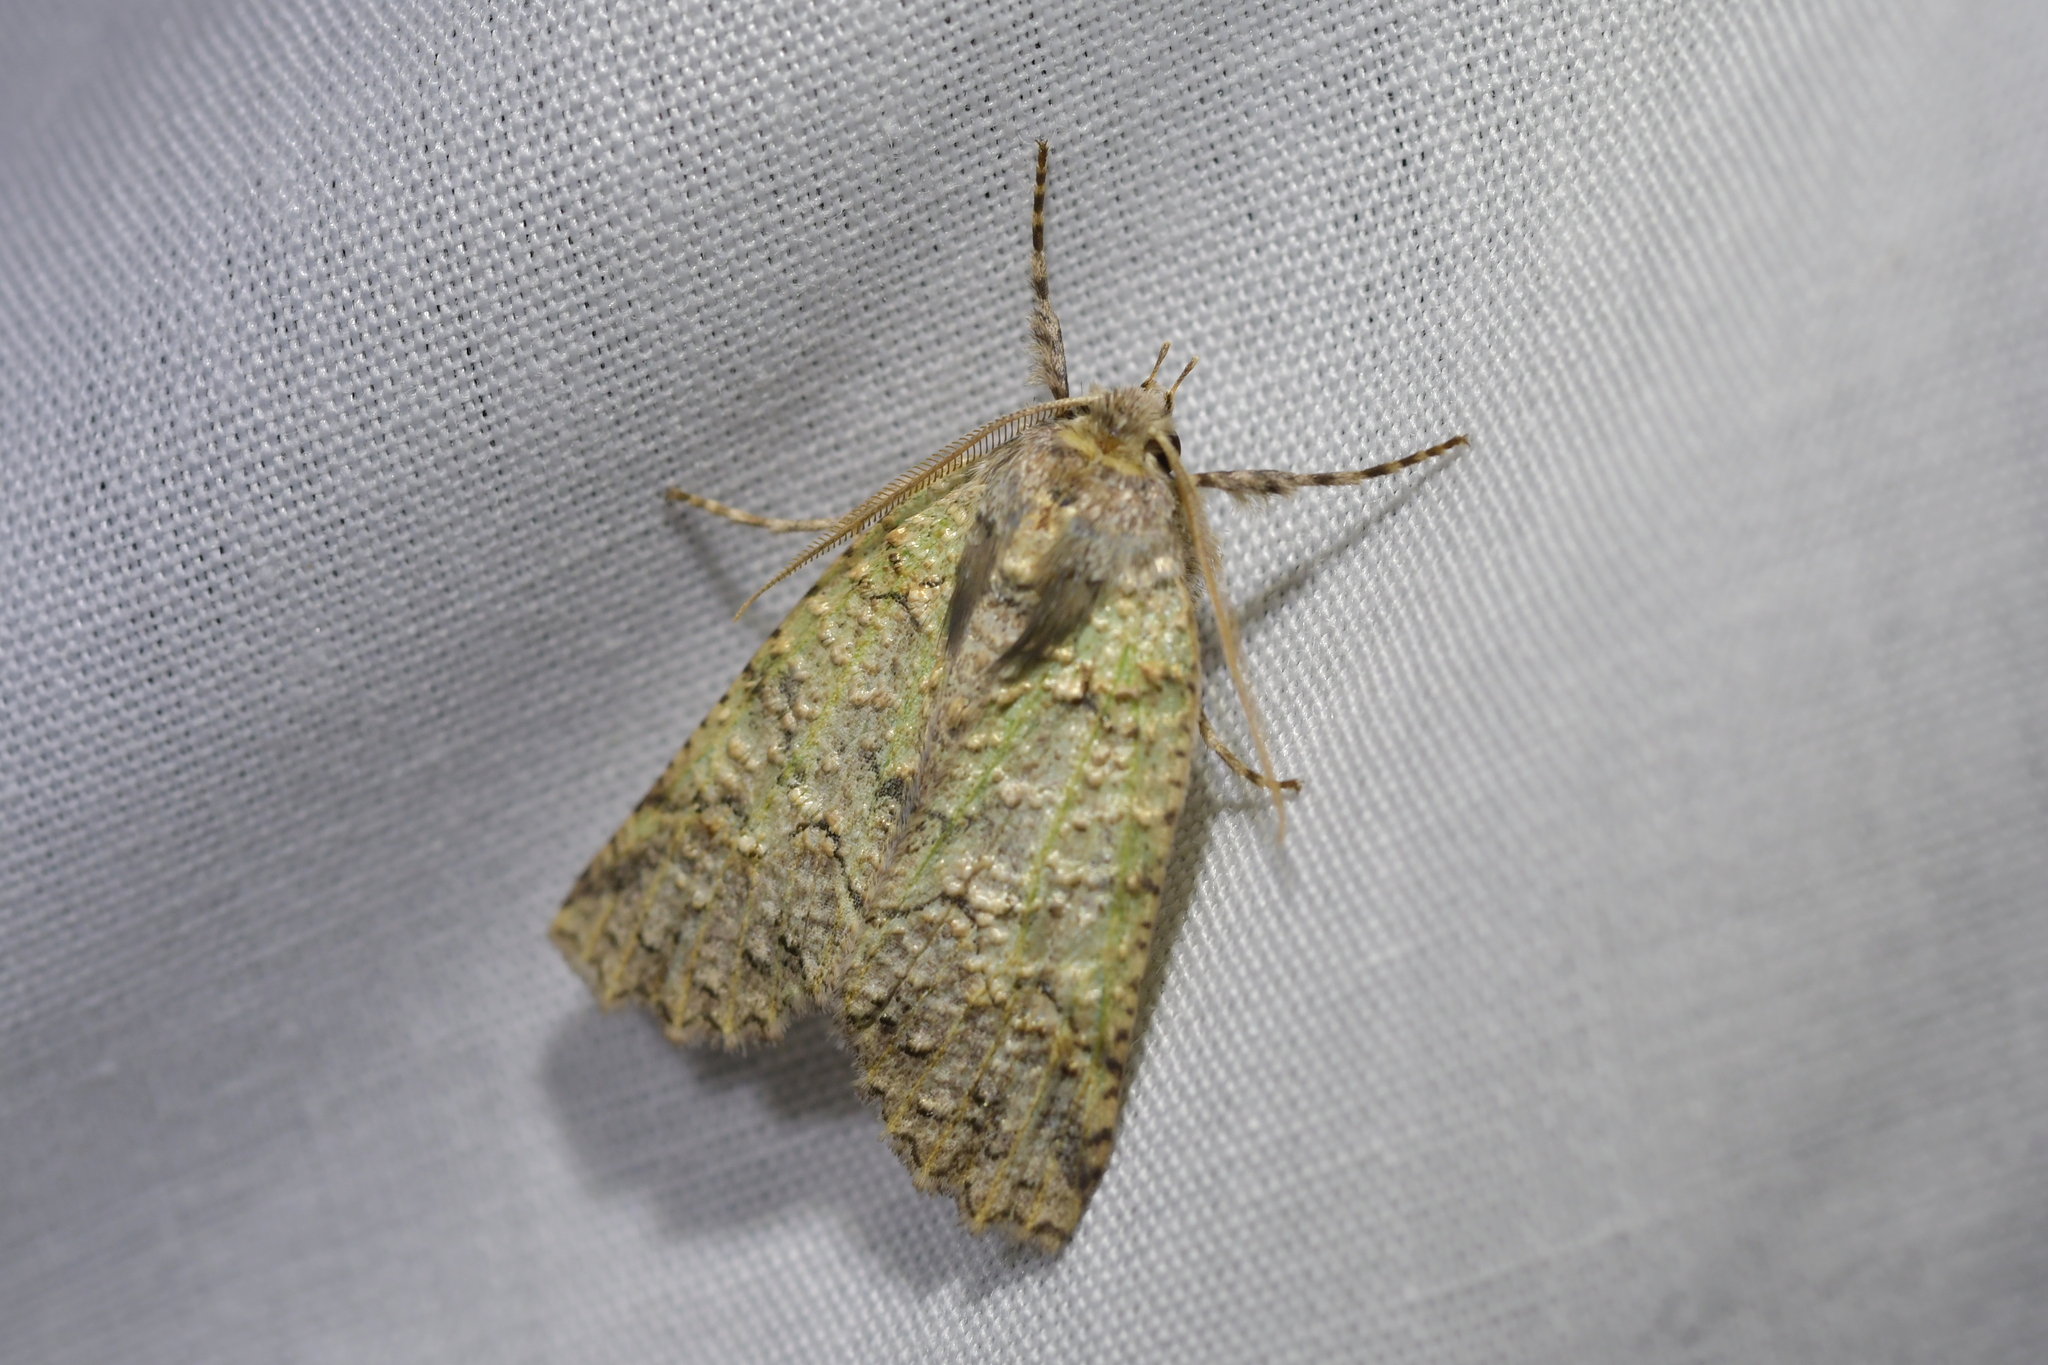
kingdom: Animalia
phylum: Arthropoda
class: Insecta
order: Lepidoptera
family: Geometridae
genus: Declana
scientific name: Declana floccosa
